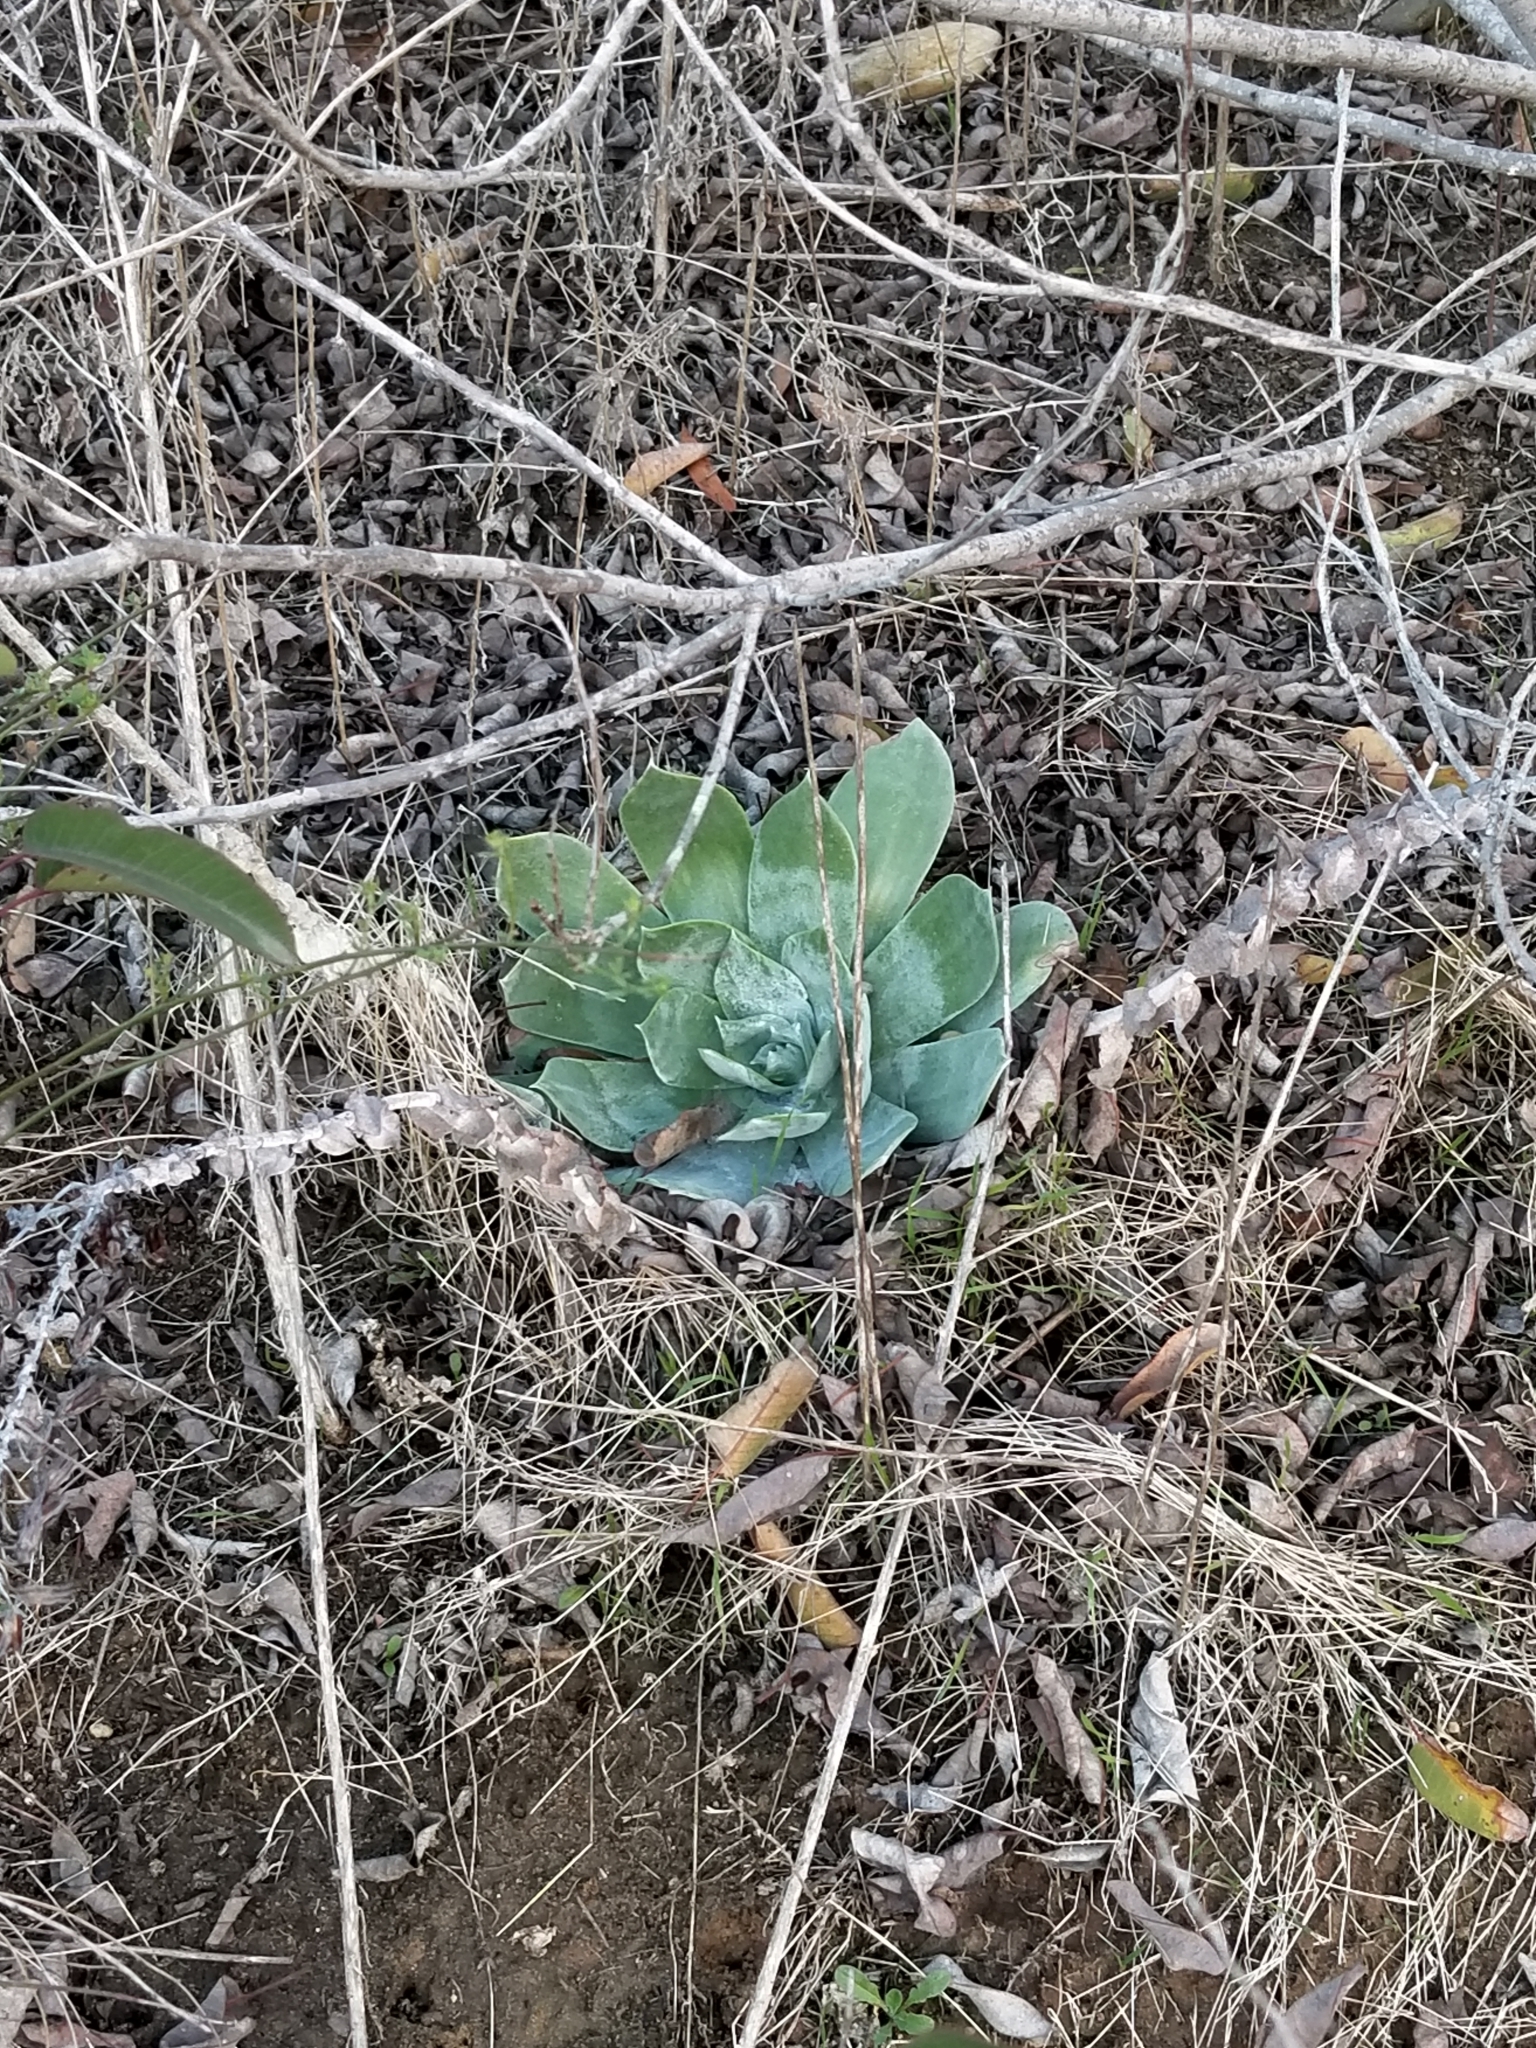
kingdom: Plantae
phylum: Tracheophyta
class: Magnoliopsida
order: Saxifragales
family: Crassulaceae
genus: Dudleya
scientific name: Dudleya pulverulenta
